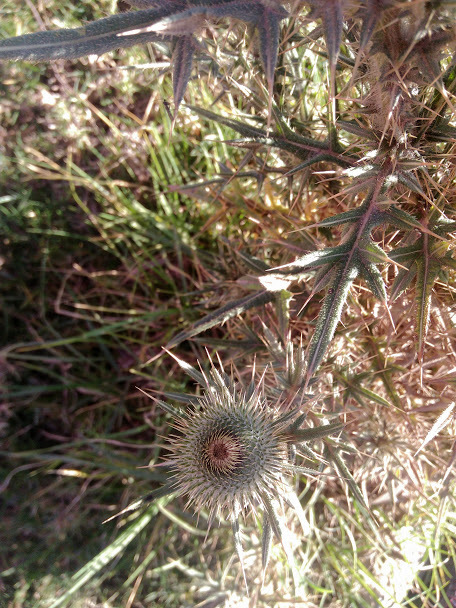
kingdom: Plantae
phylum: Tracheophyta
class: Magnoliopsida
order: Asterales
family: Asteraceae
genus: Cirsium
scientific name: Cirsium vulgare
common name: Bull thistle
